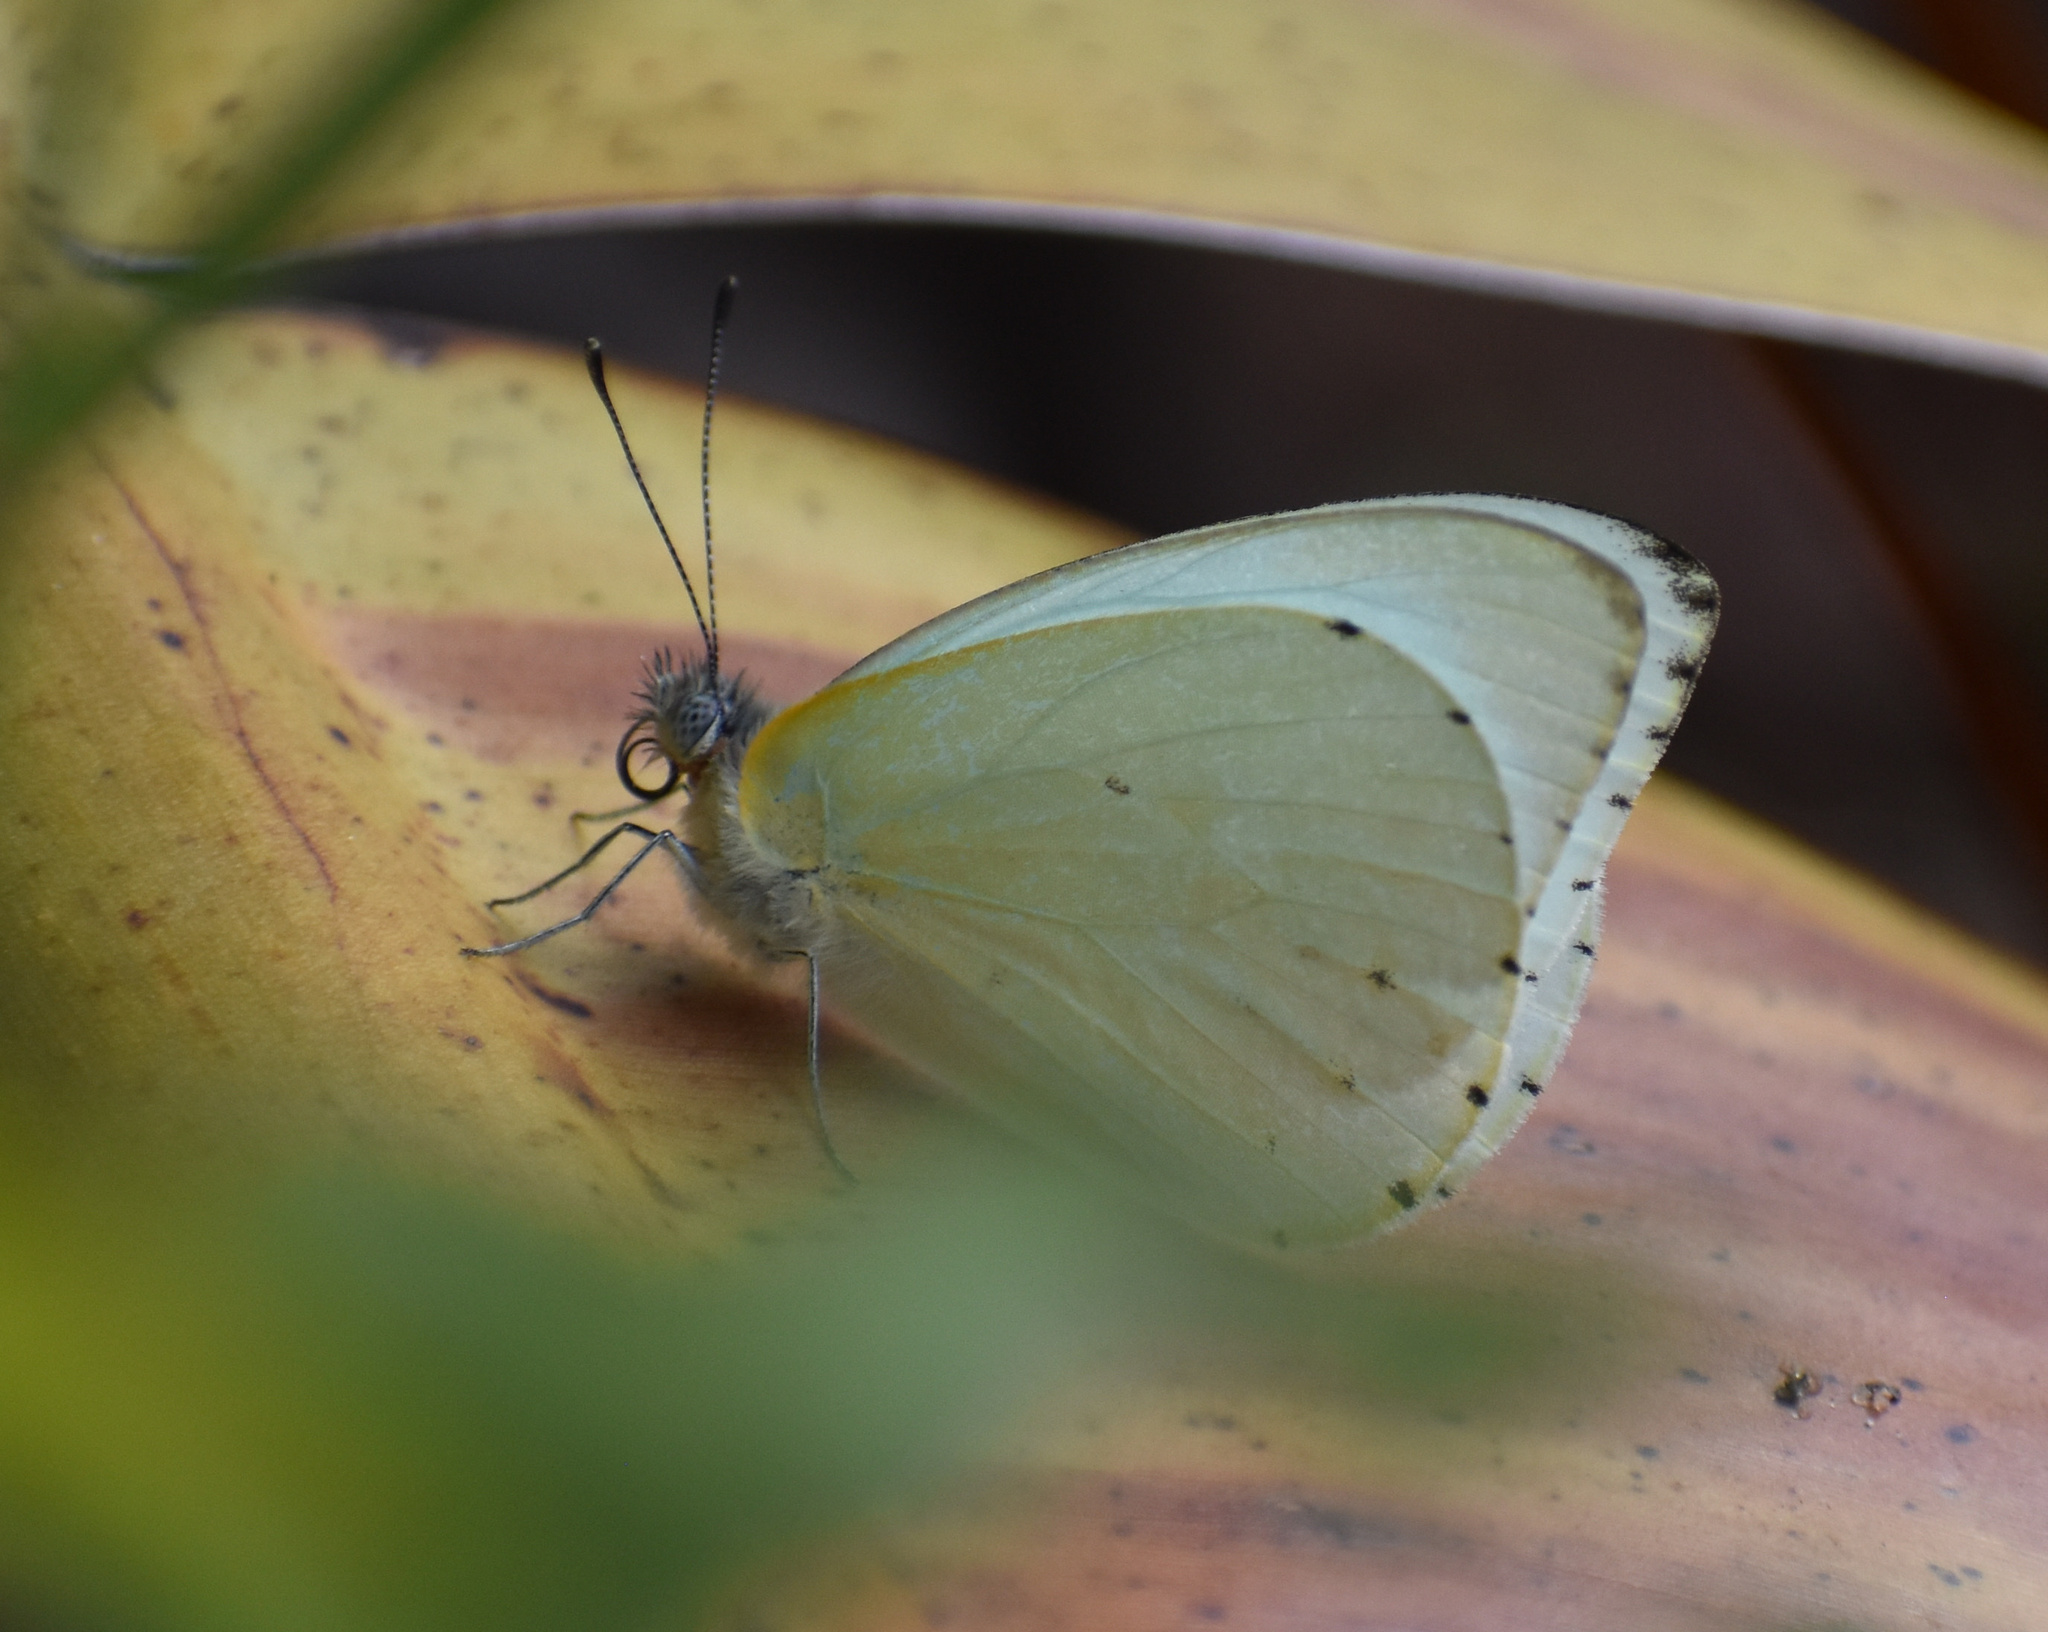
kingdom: Animalia
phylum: Arthropoda
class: Insecta
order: Lepidoptera
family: Pieridae
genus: Dixeia
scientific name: Dixeia pigea
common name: Ant-heap small white
